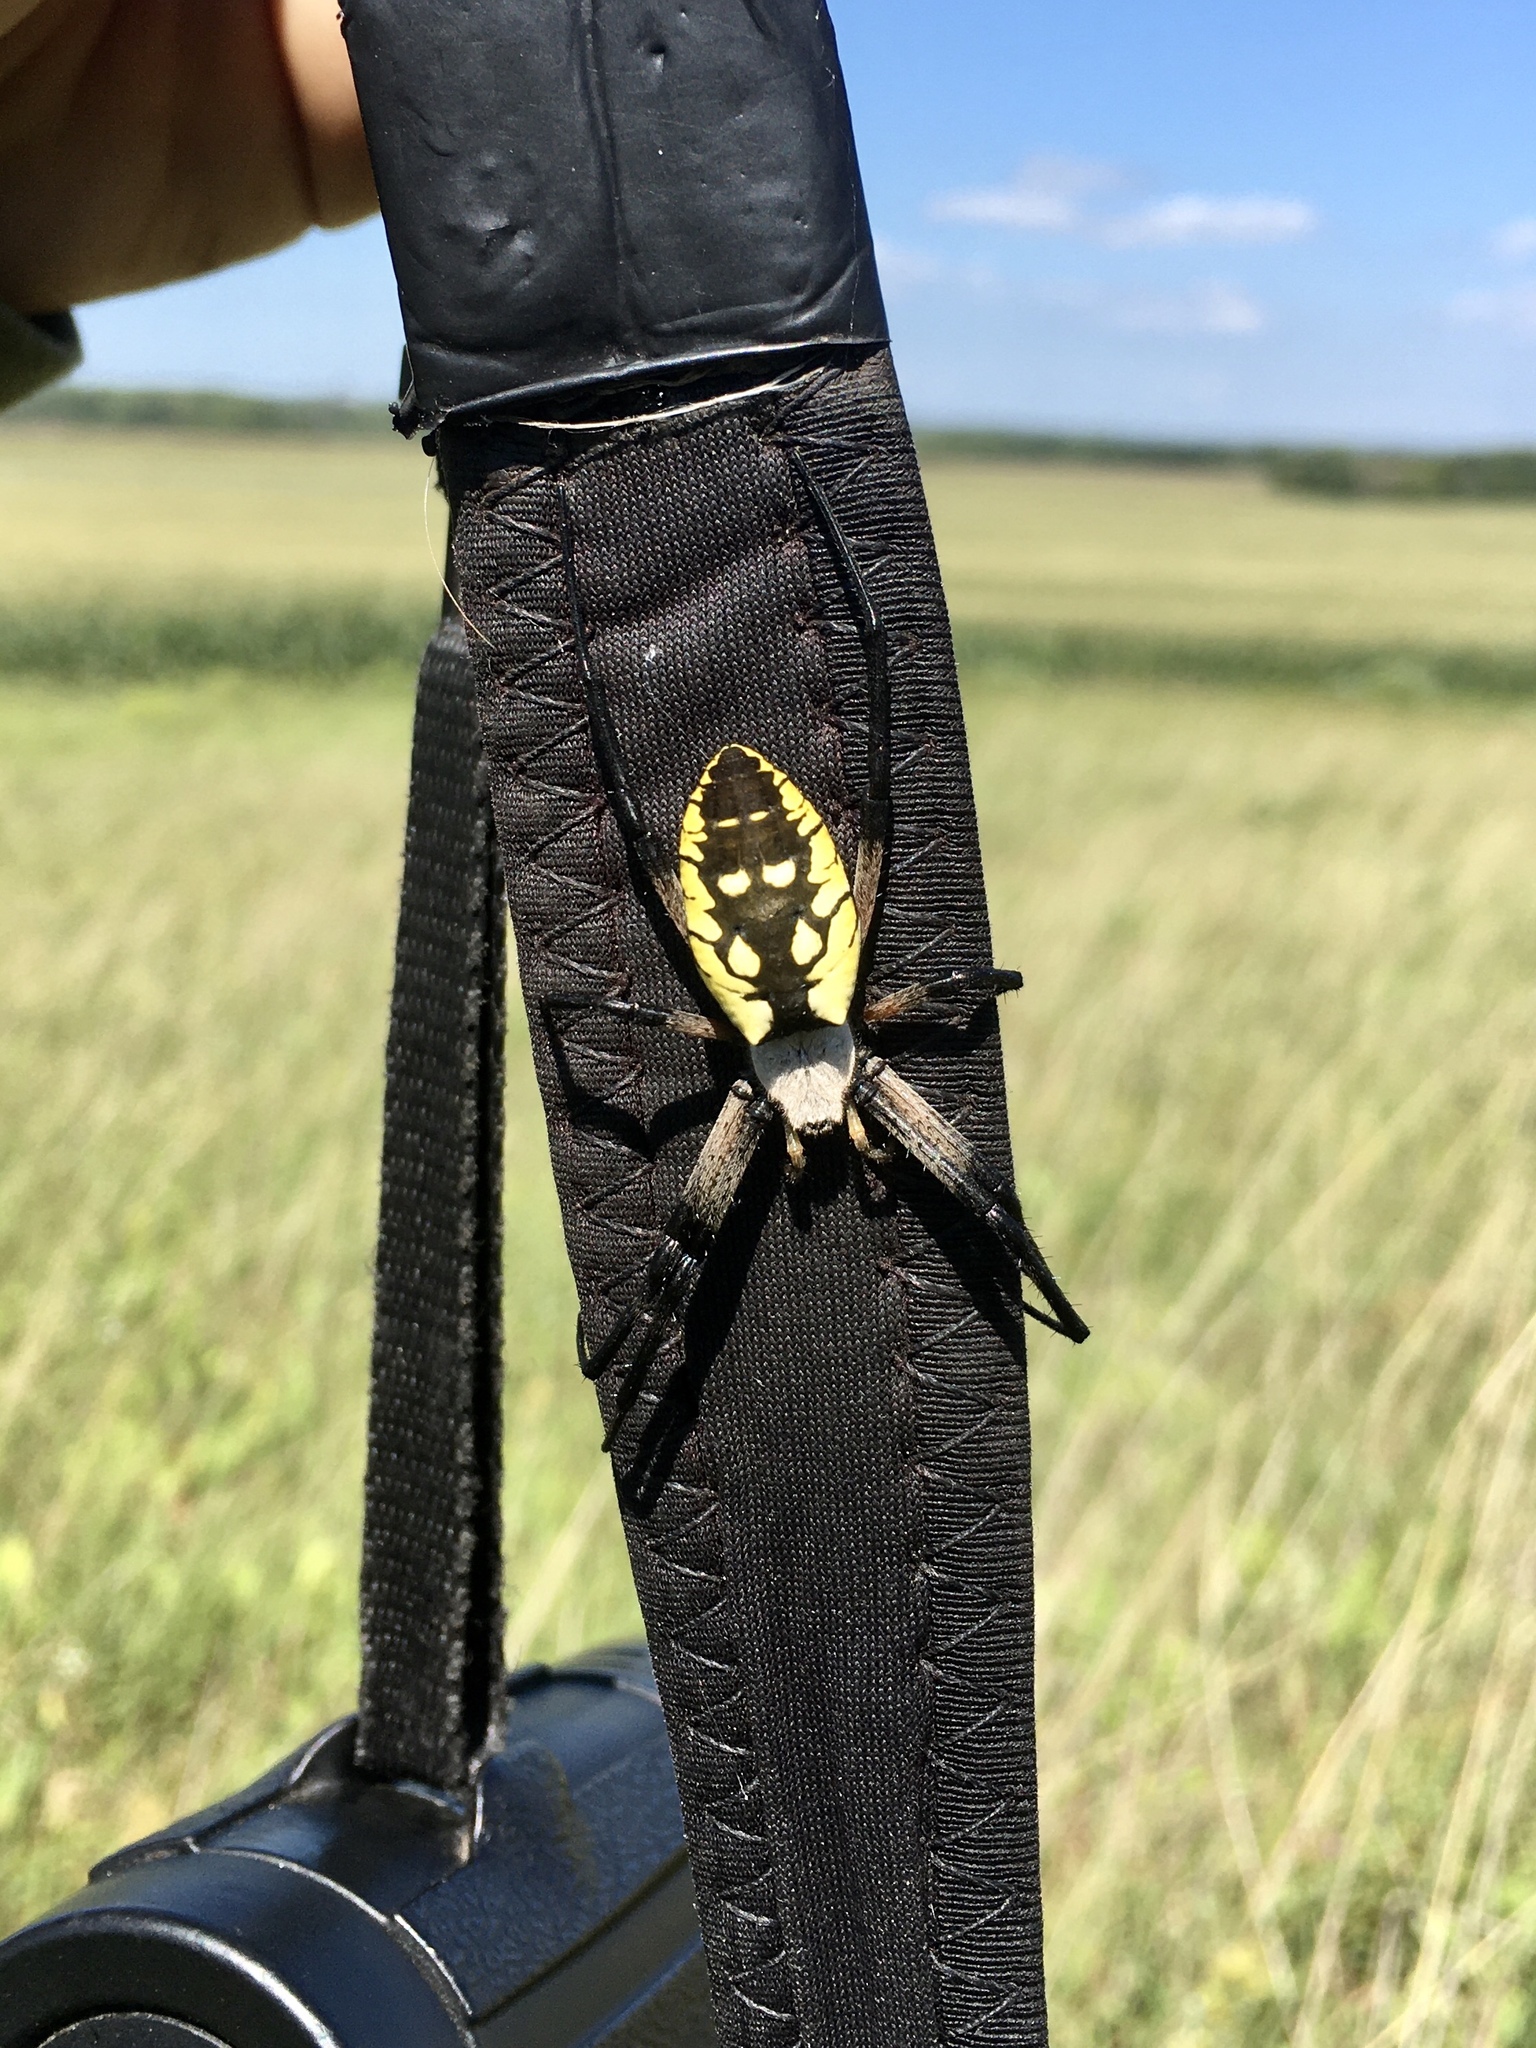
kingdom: Animalia
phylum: Arthropoda
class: Arachnida
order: Araneae
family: Araneidae
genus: Argiope
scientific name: Argiope aurantia
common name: Orb weavers
